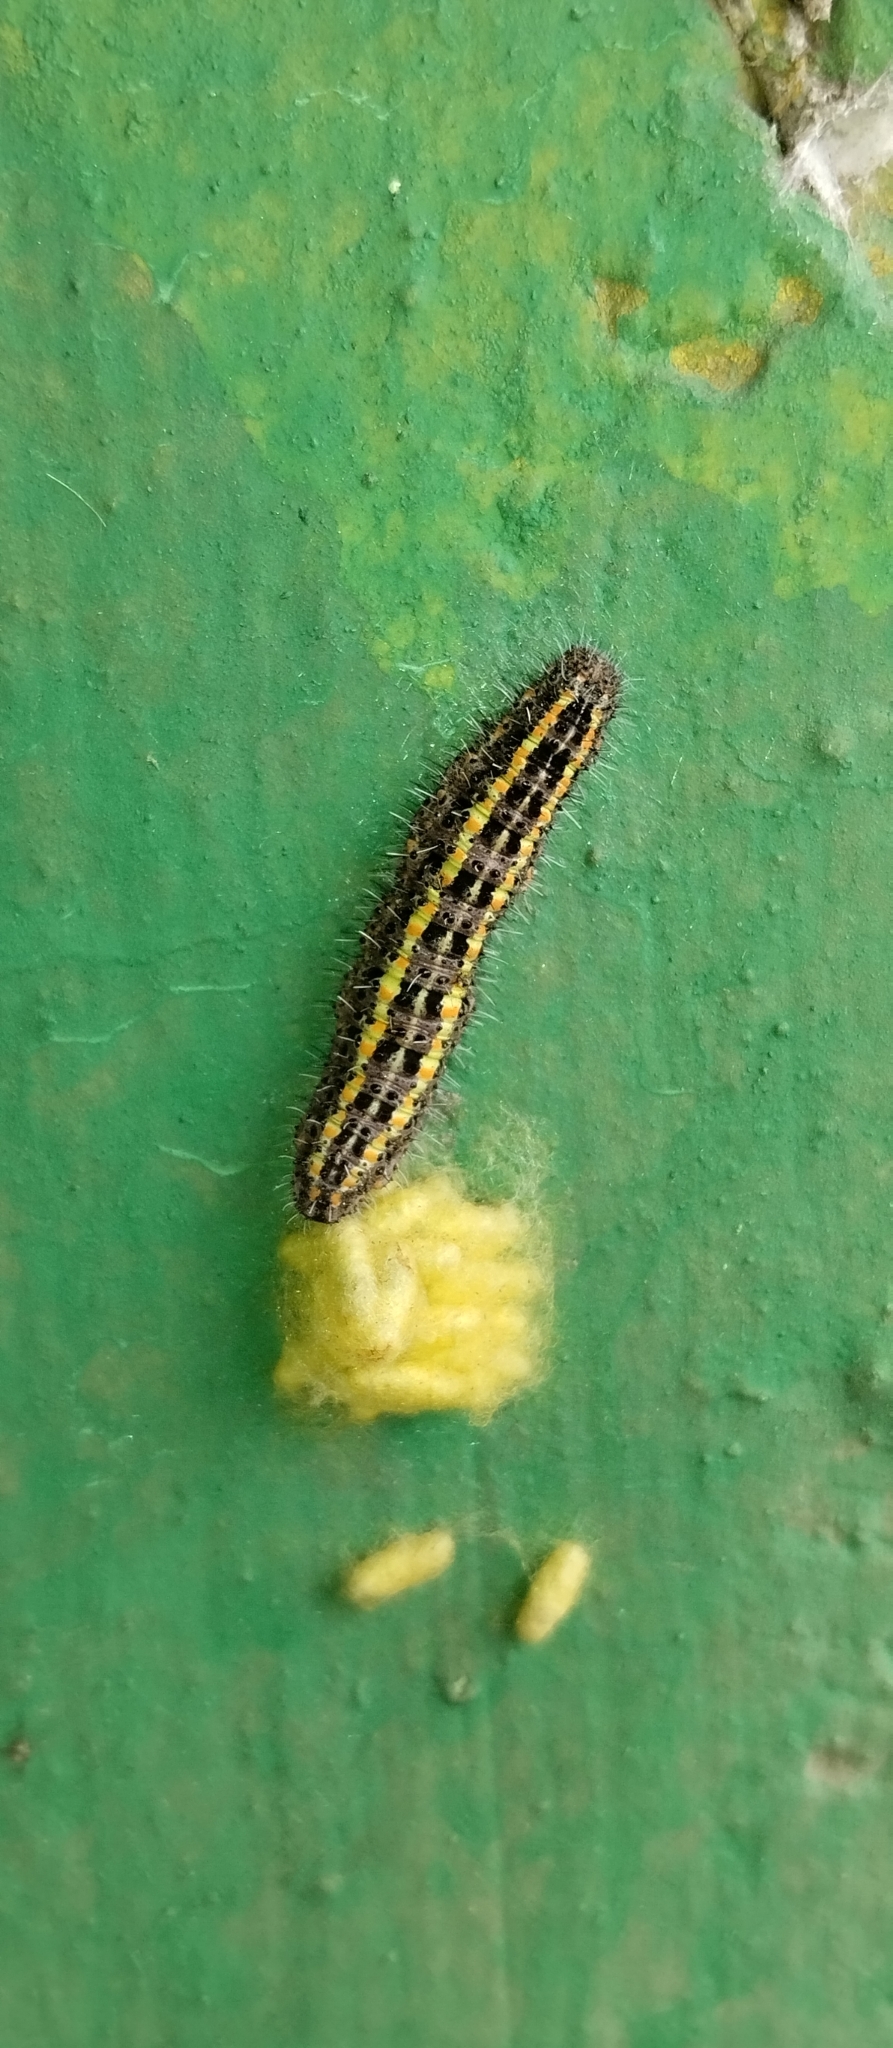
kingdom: Animalia
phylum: Arthropoda
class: Insecta
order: Lepidoptera
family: Pieridae
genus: Tatochila
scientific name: Tatochila mercedis
